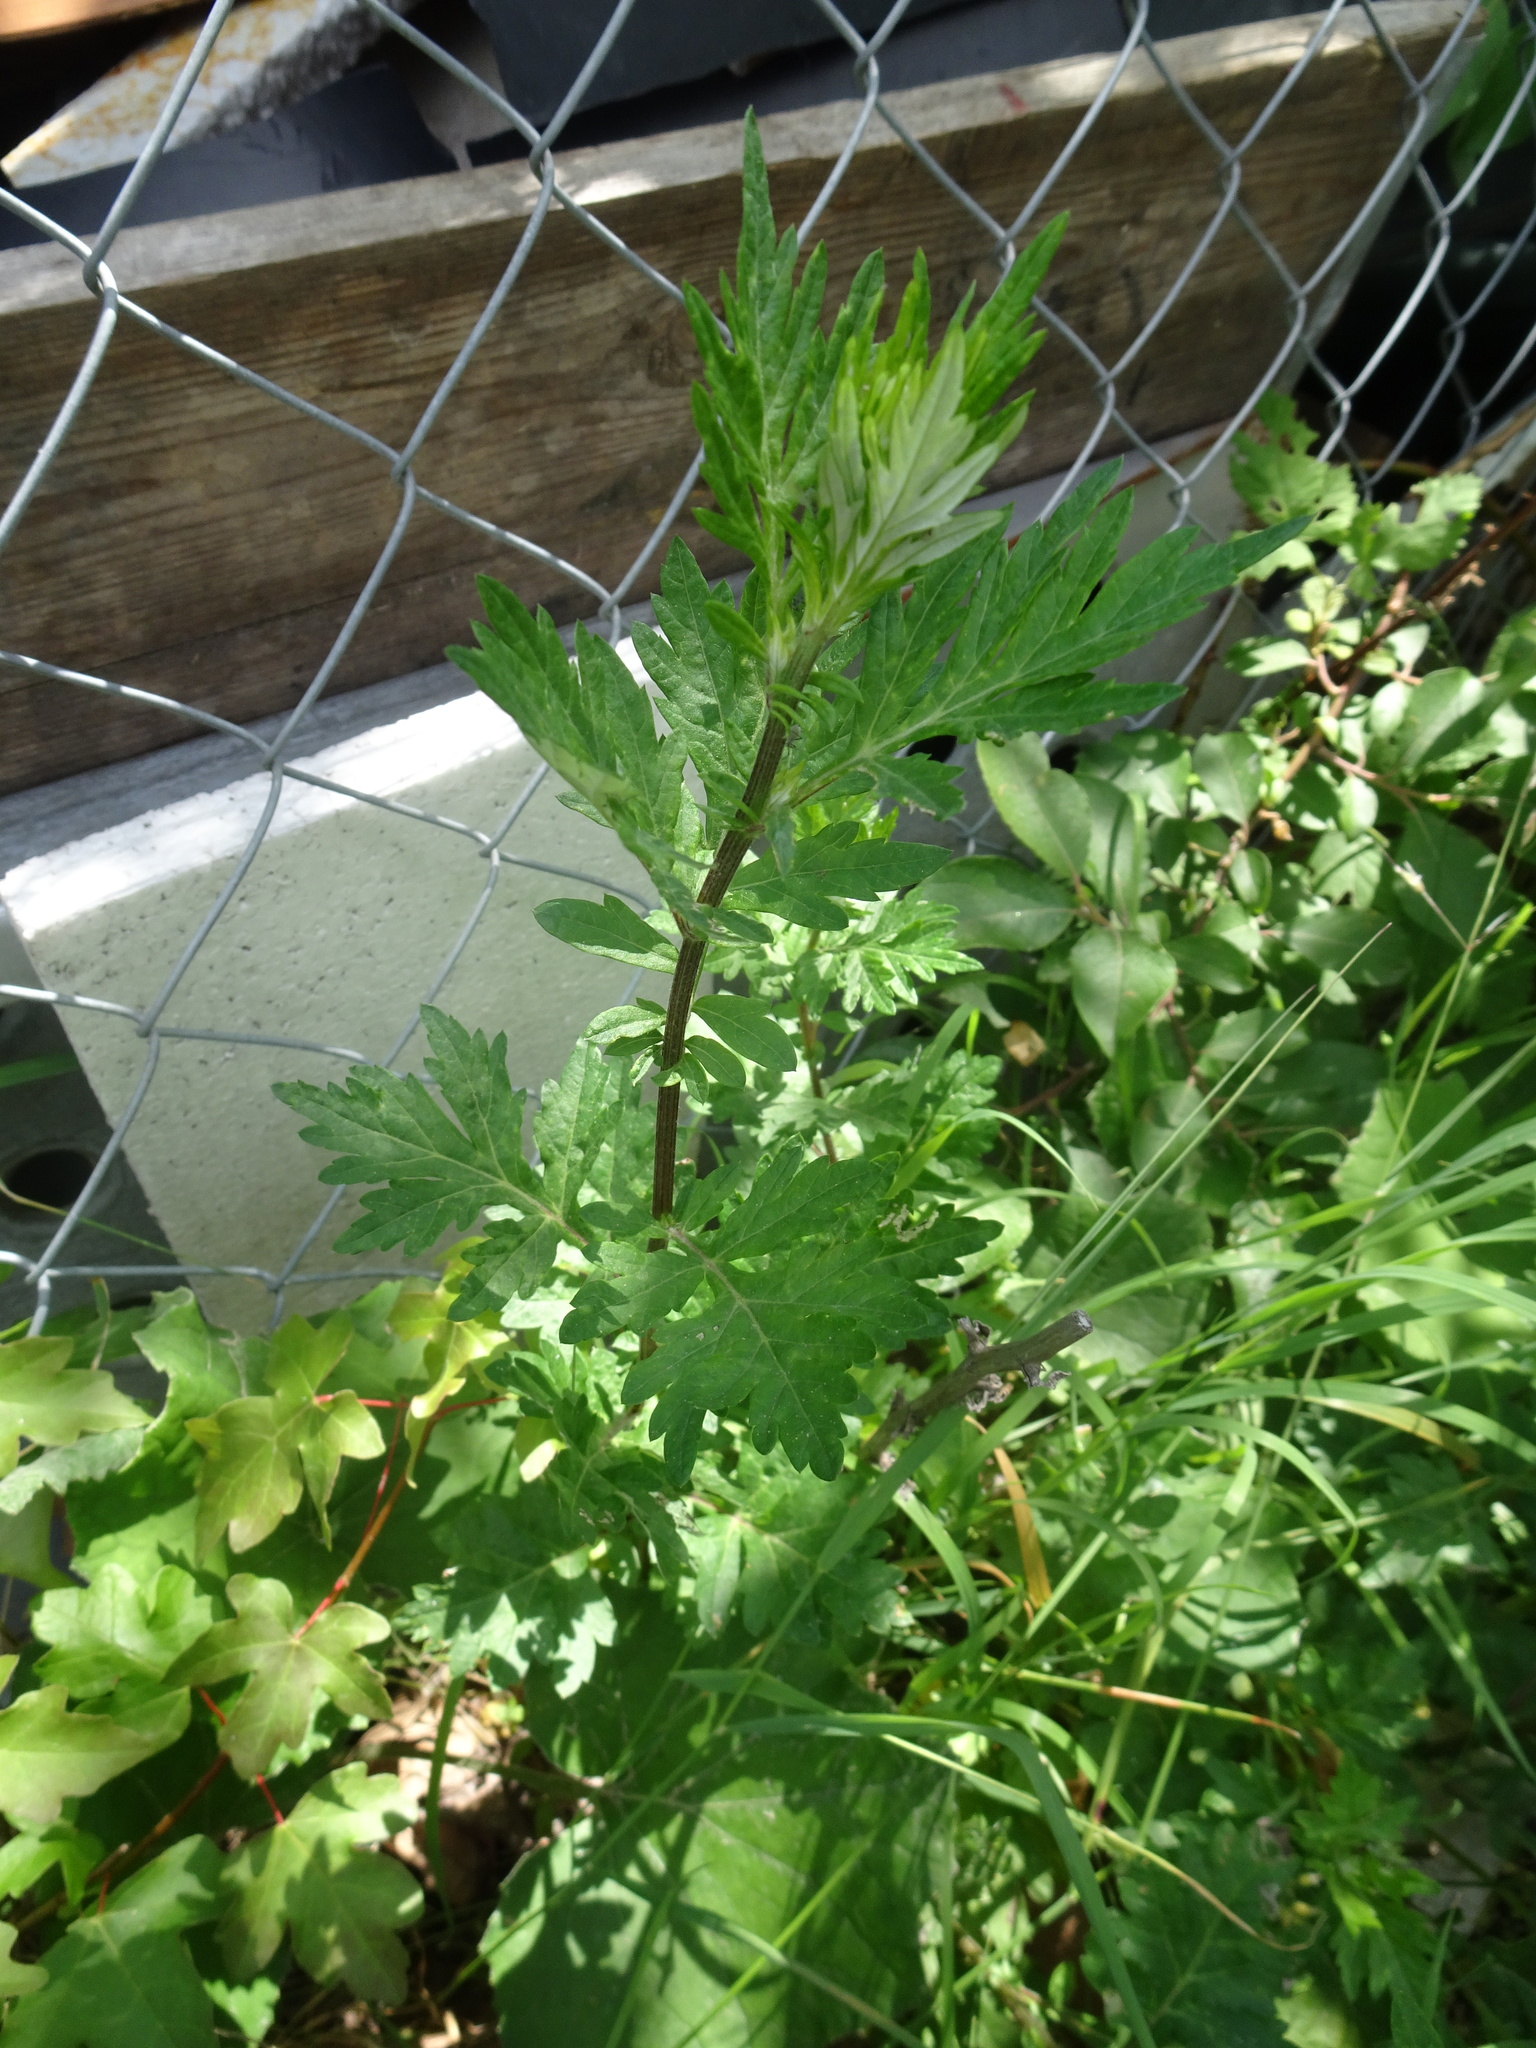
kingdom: Plantae
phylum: Tracheophyta
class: Magnoliopsida
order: Asterales
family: Asteraceae
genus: Artemisia
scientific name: Artemisia vulgaris
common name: Mugwort
